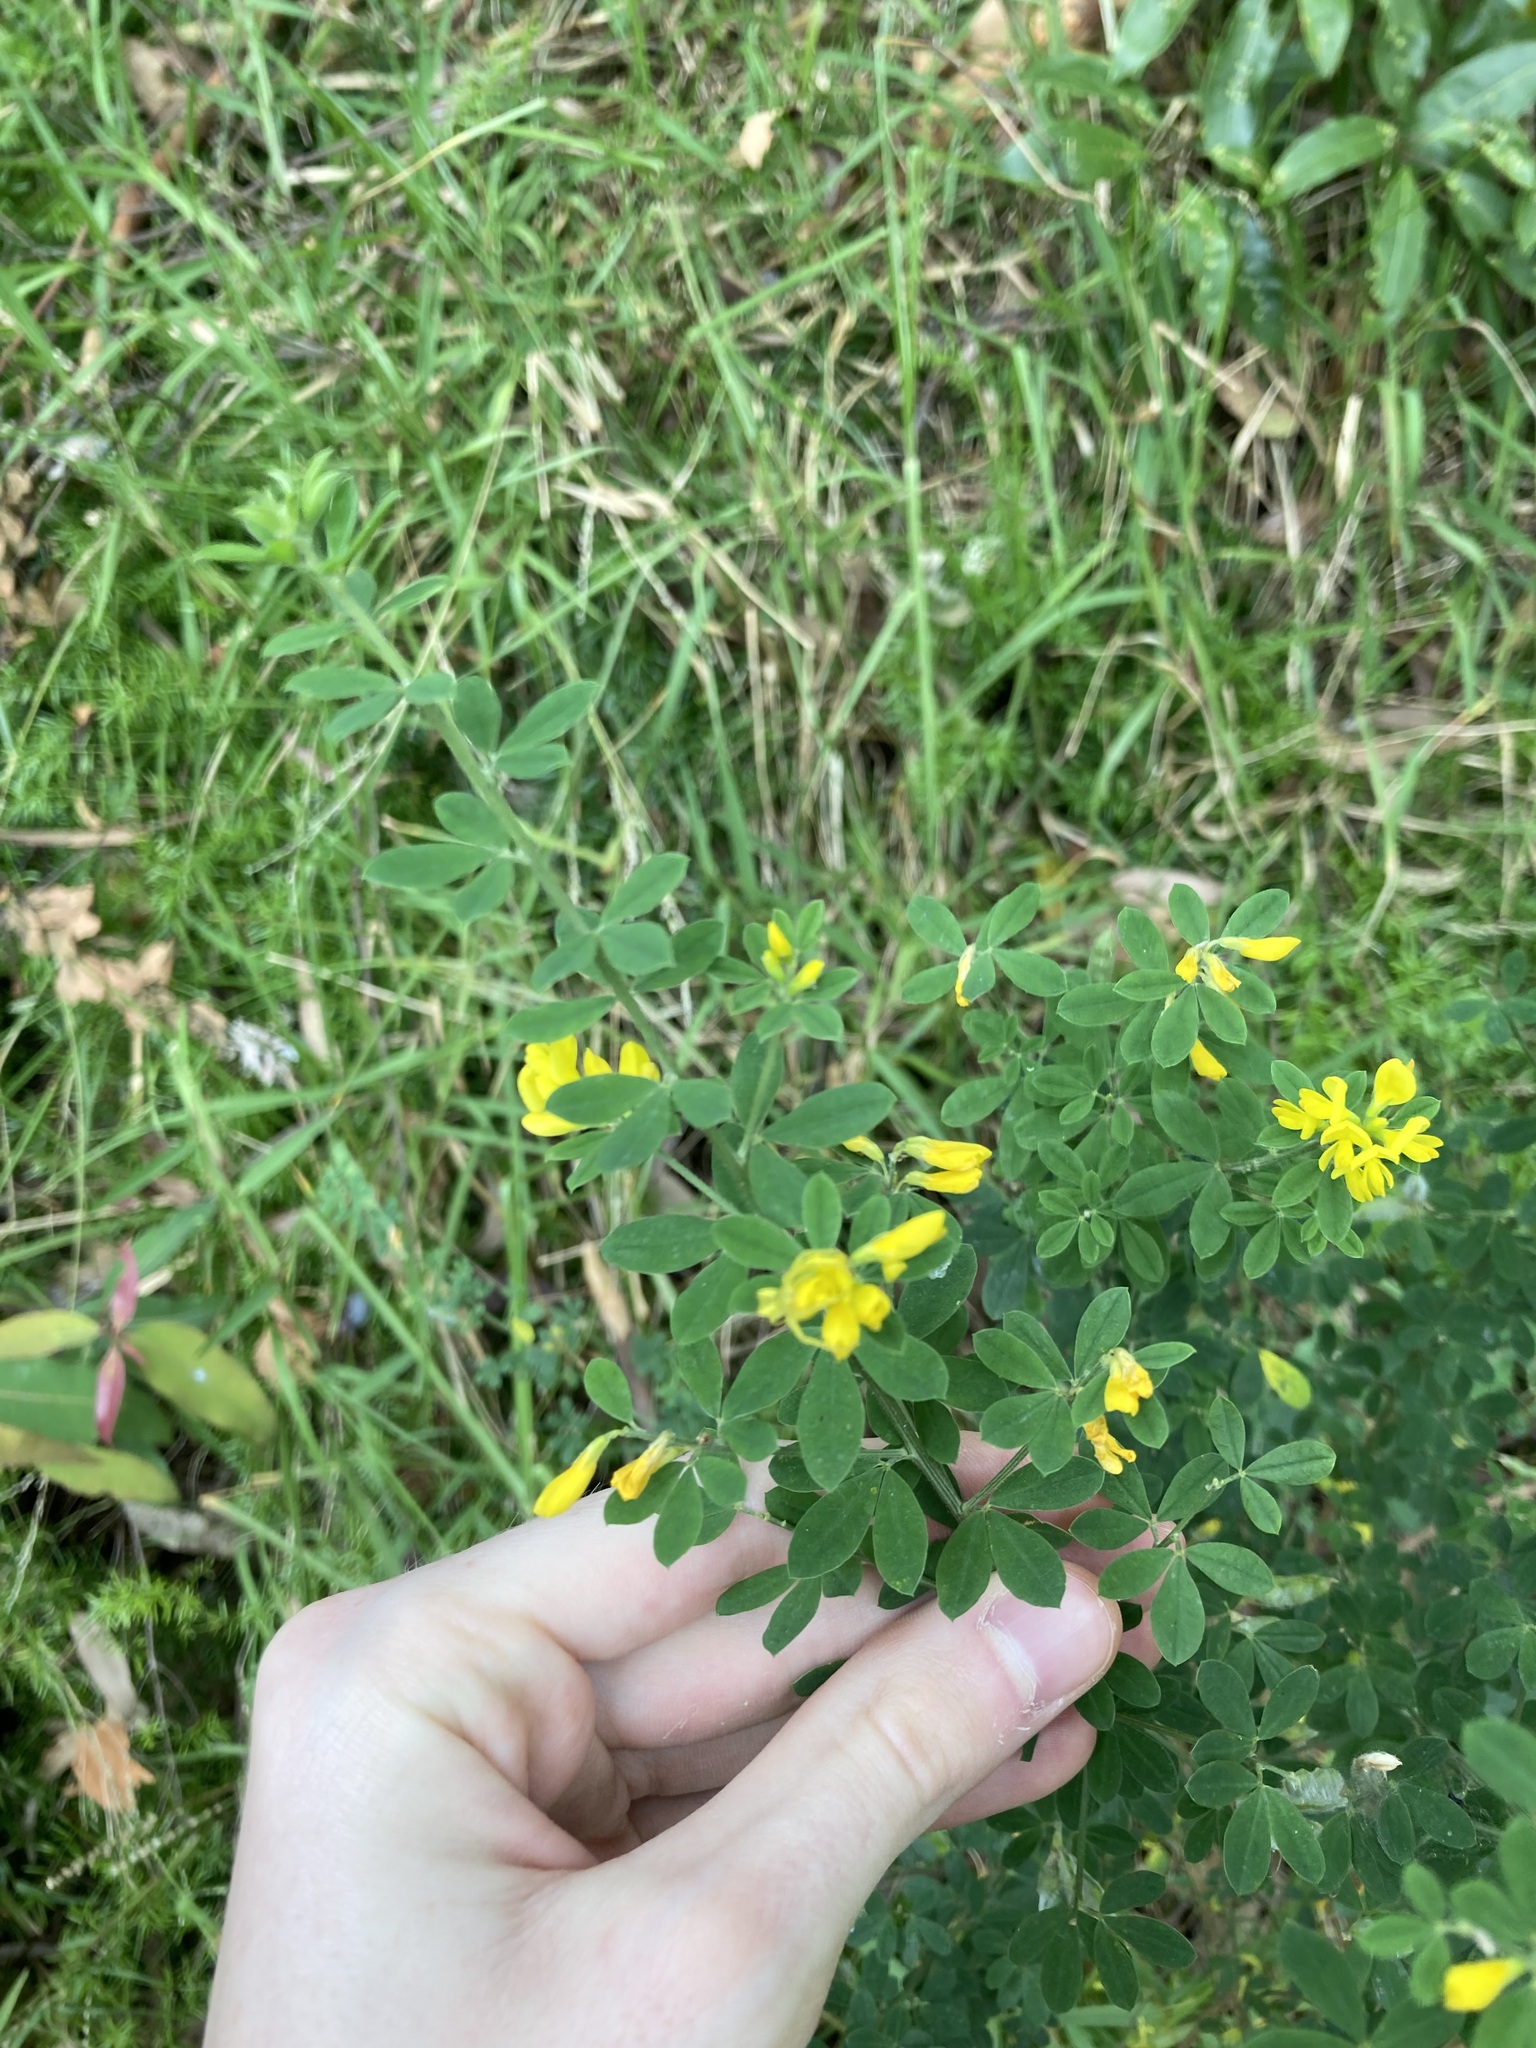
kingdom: Plantae
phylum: Tracheophyta
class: Magnoliopsida
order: Fabales
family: Fabaceae
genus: Genista
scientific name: Genista monspessulana
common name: Montpellier broom
